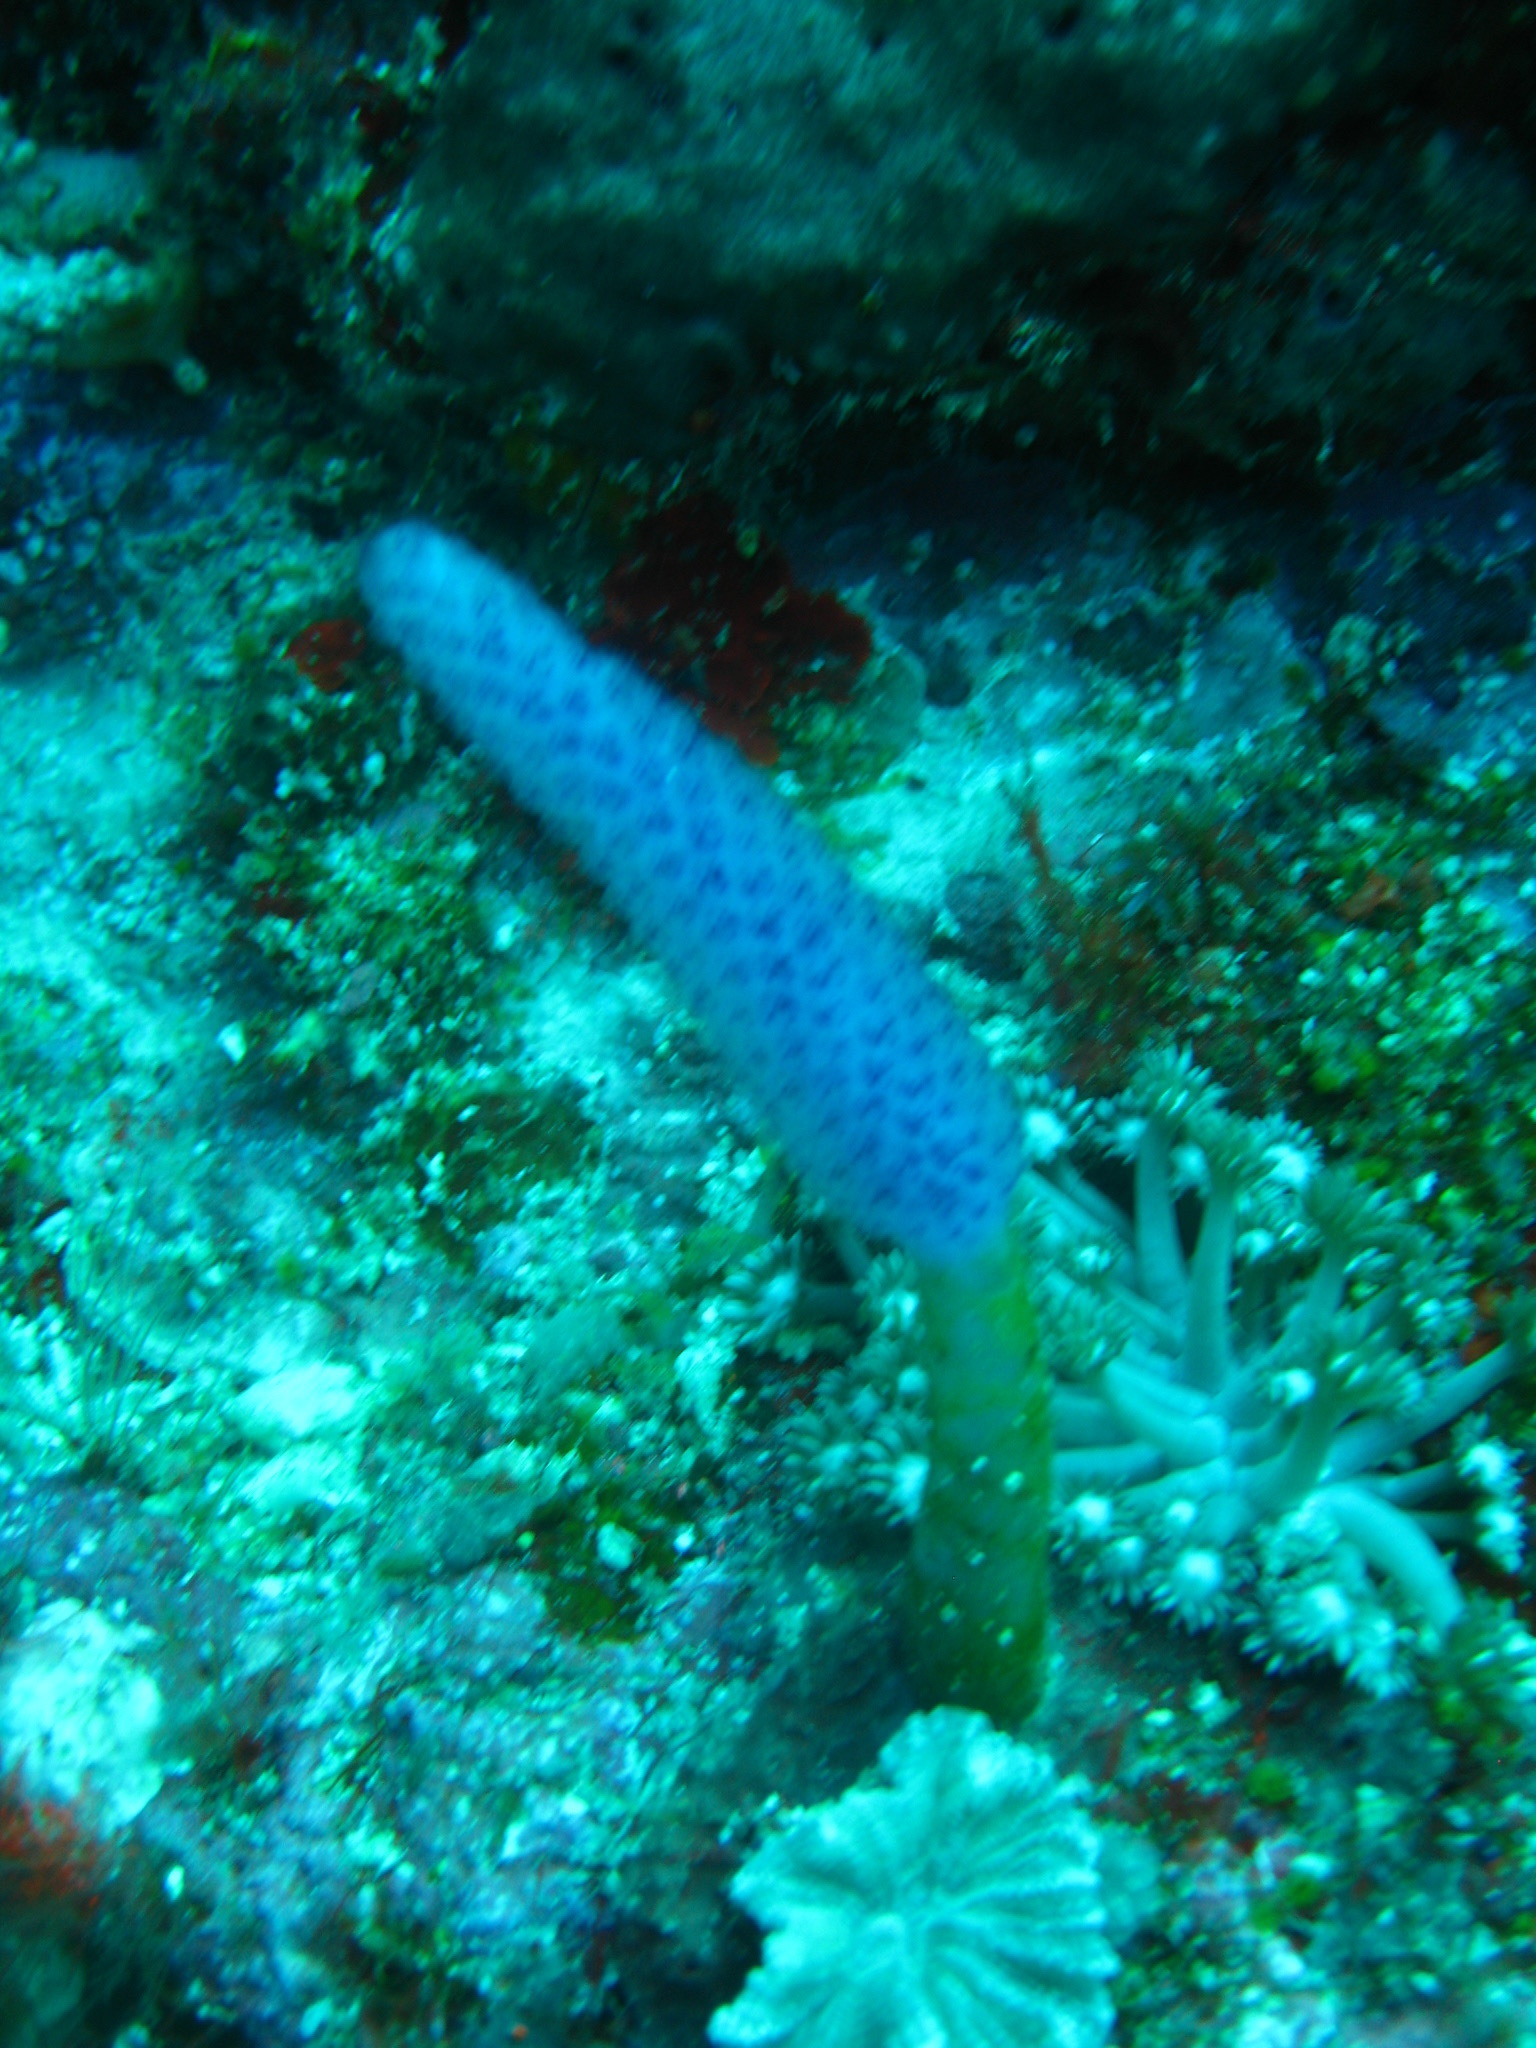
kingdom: Animalia
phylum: Chordata
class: Ascidiacea
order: Aplousobranchia
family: Holozoidae
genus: Sigillina
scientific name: Sigillina cyanea
